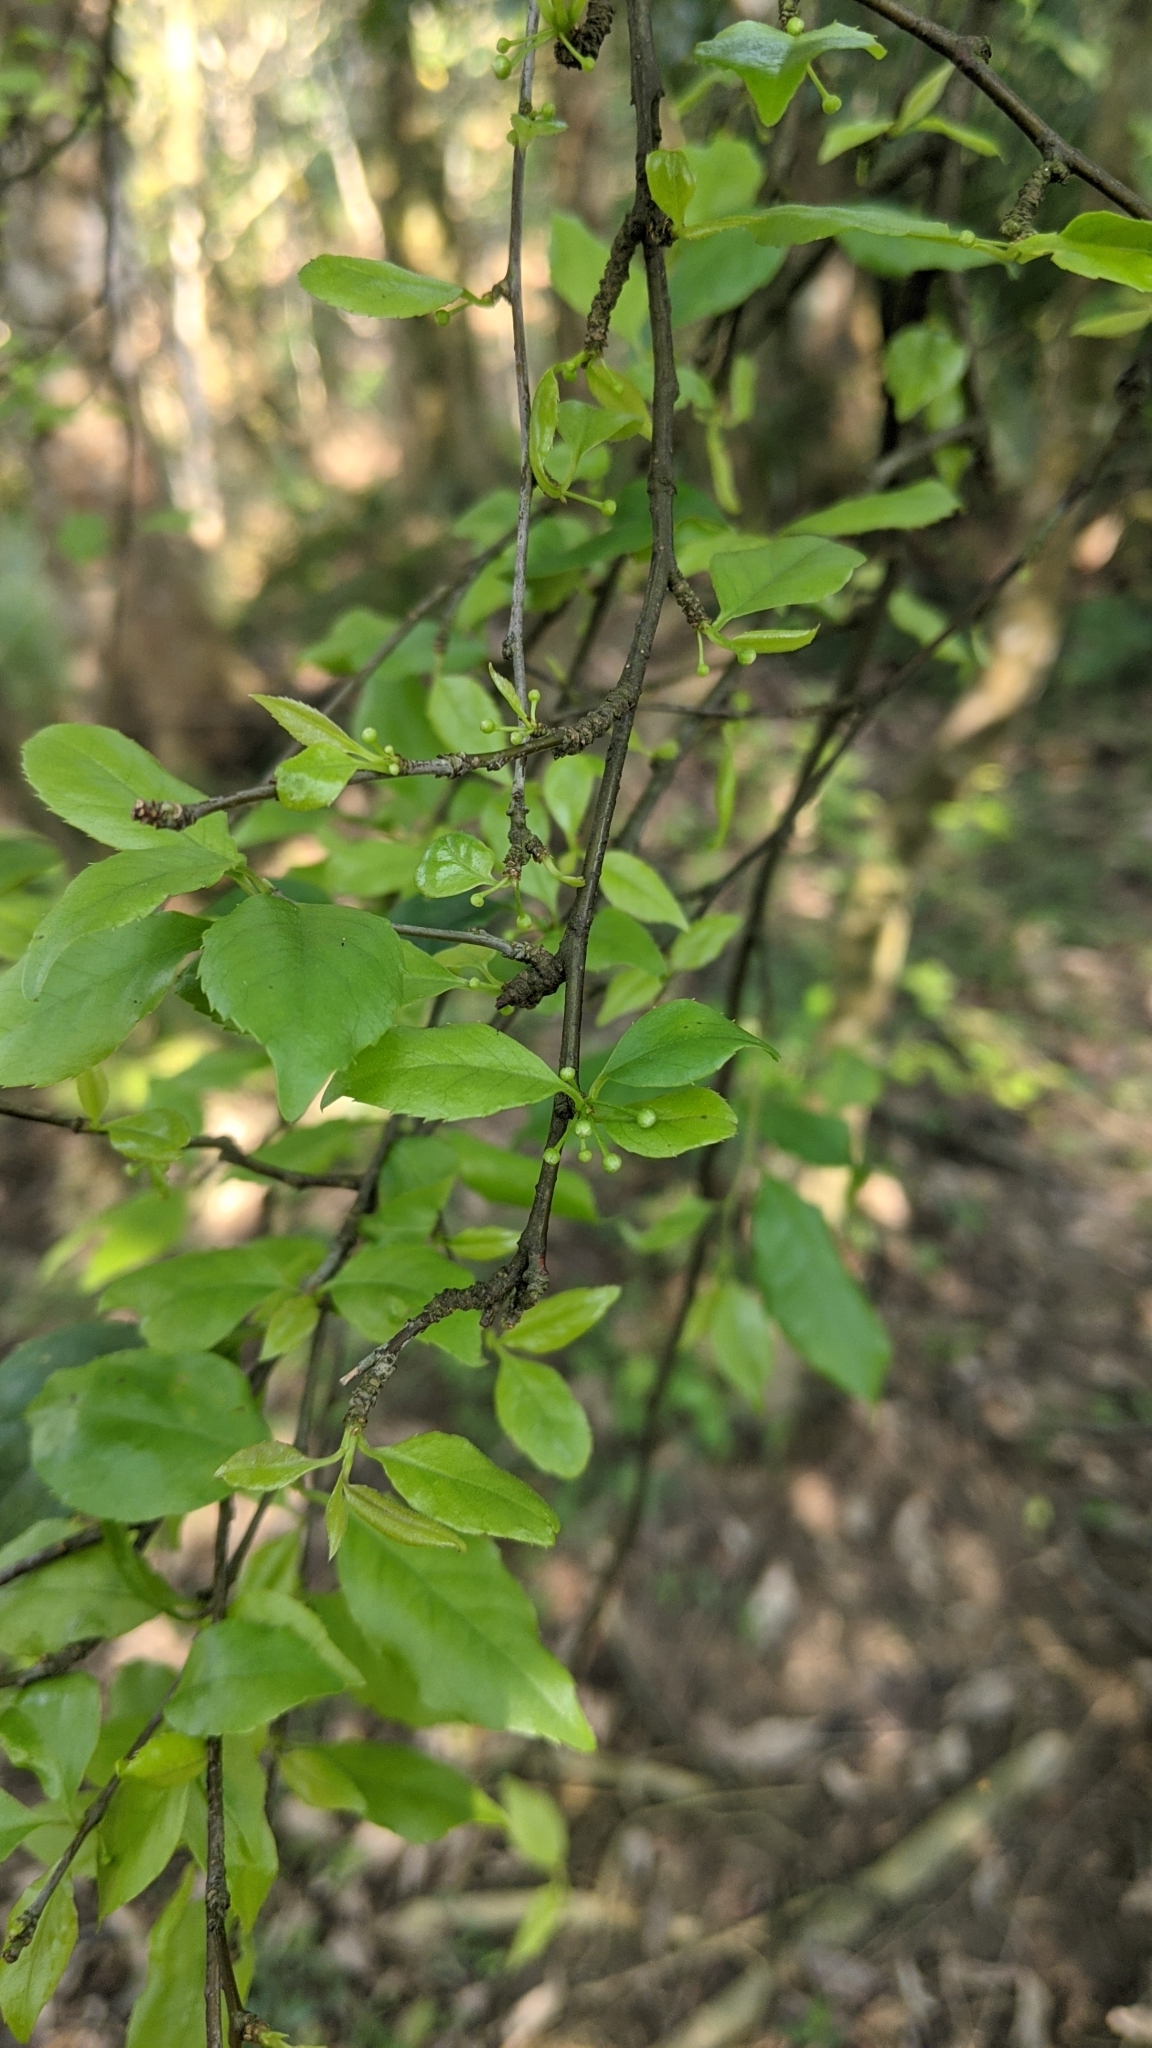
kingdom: Plantae
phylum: Tracheophyta
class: Magnoliopsida
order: Aquifoliales
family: Aquifoliaceae
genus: Ilex
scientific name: Ilex asprella
